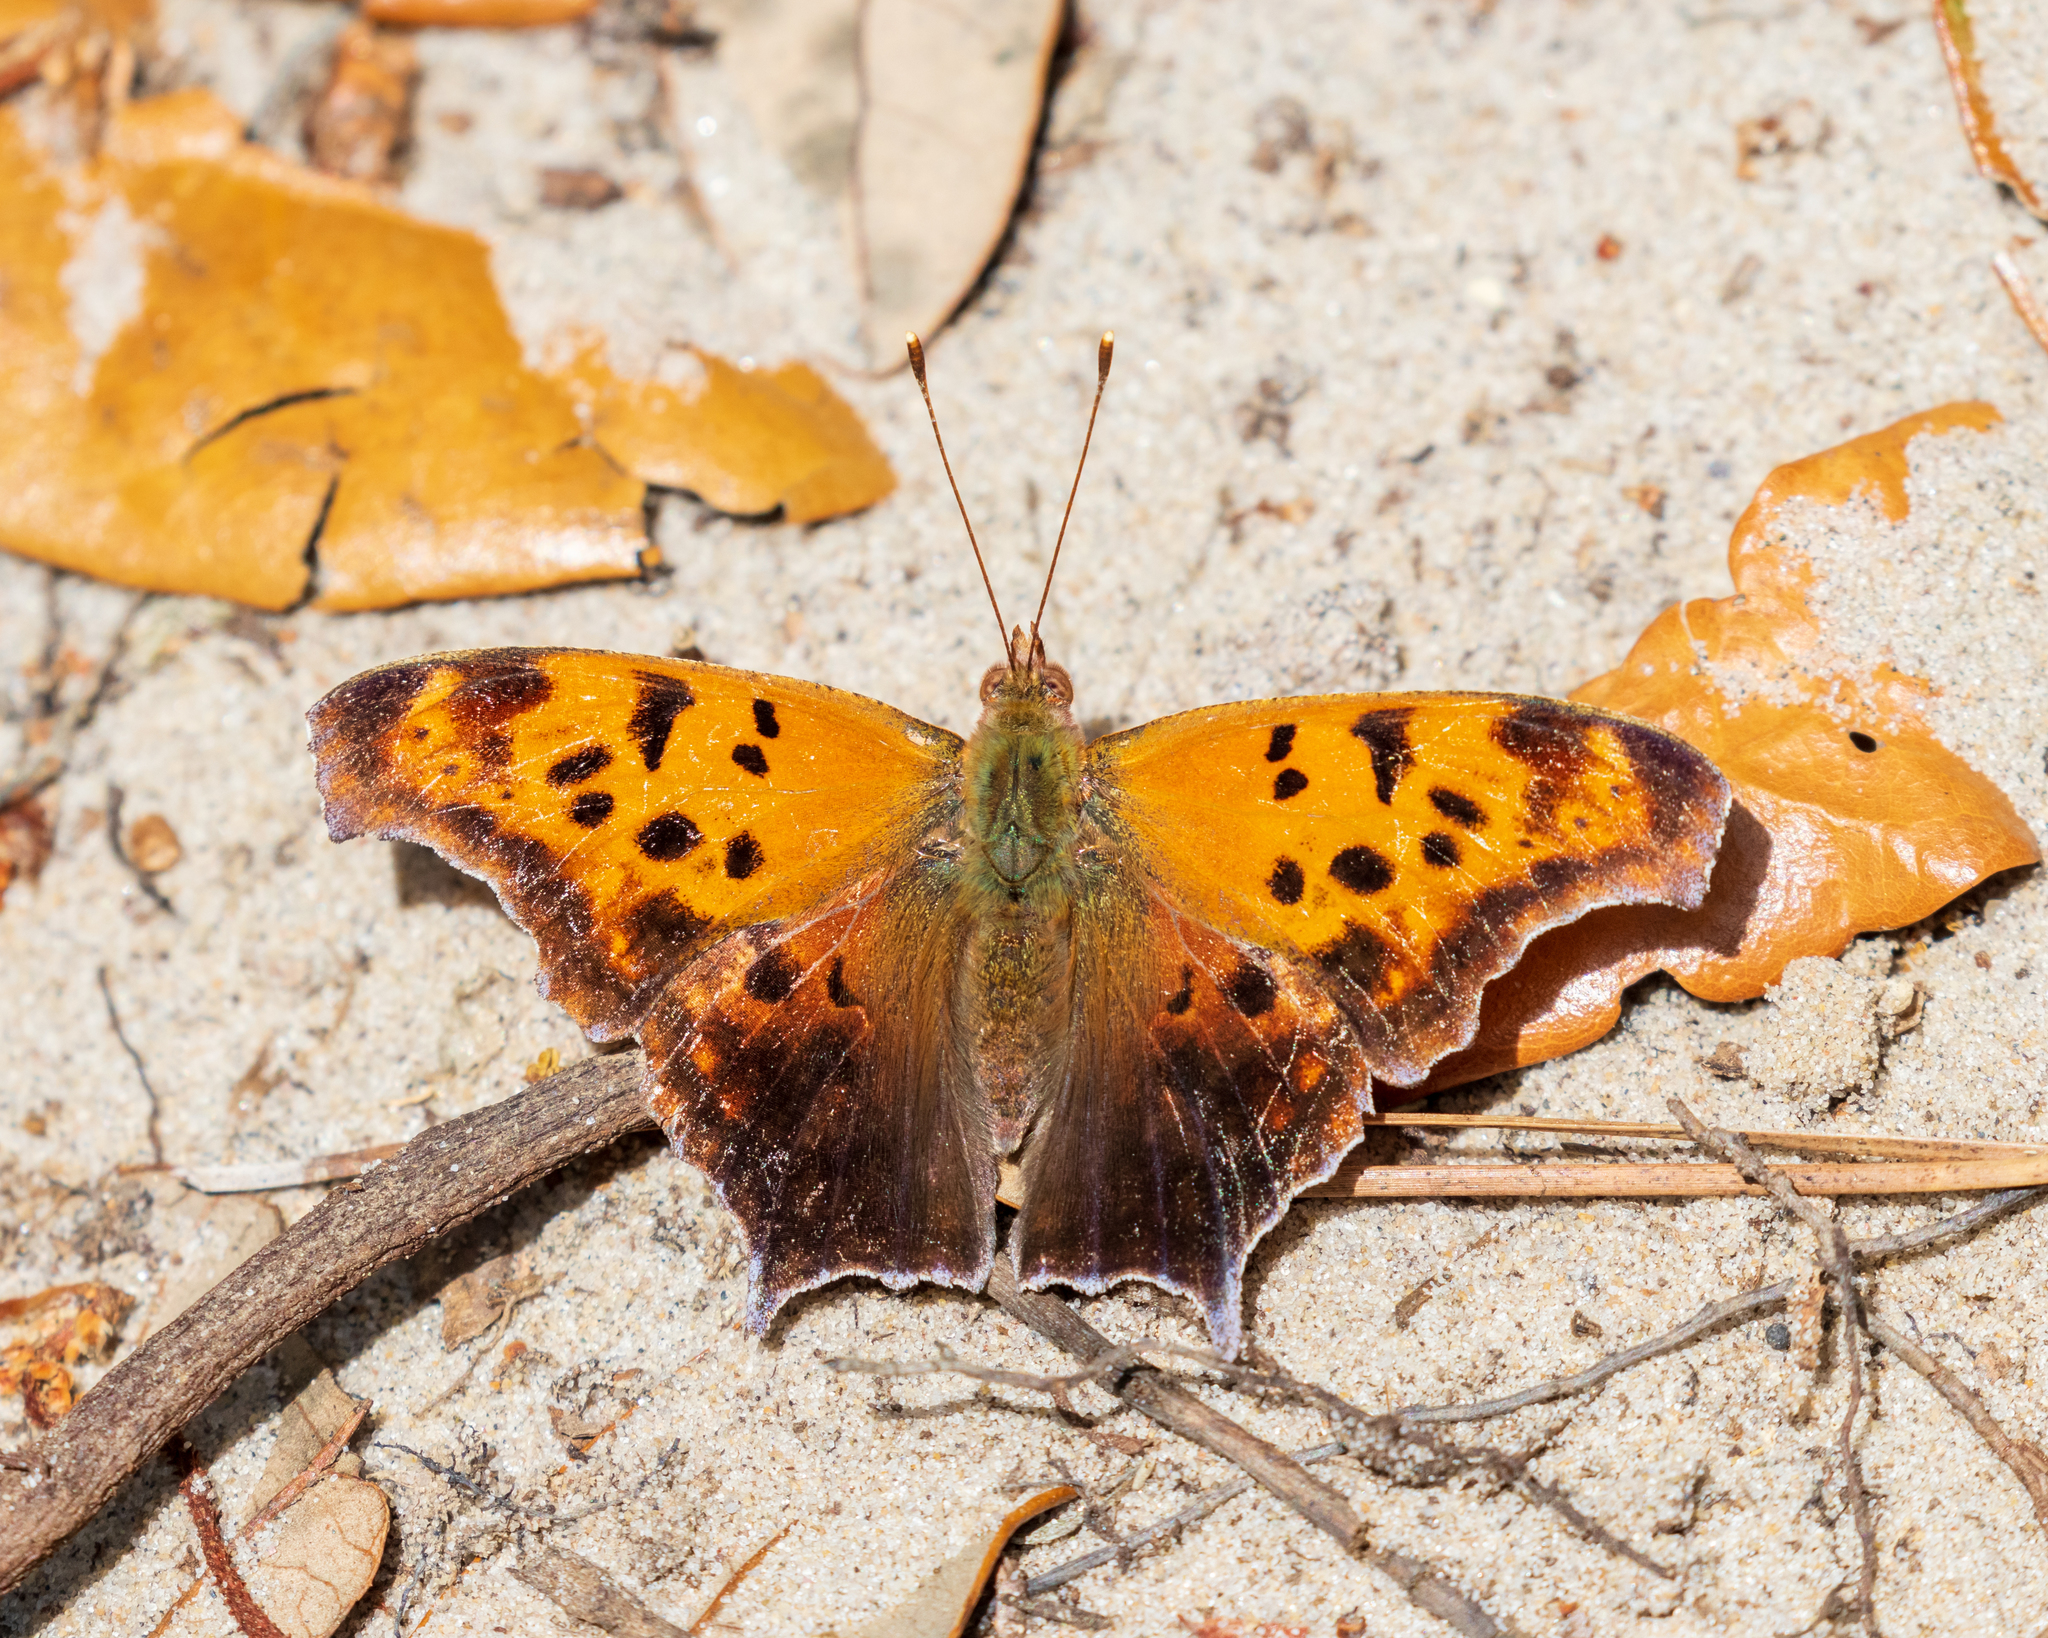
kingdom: Animalia
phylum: Arthropoda
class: Insecta
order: Lepidoptera
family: Nymphalidae
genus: Polygonia
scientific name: Polygonia interrogationis
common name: Question mark
